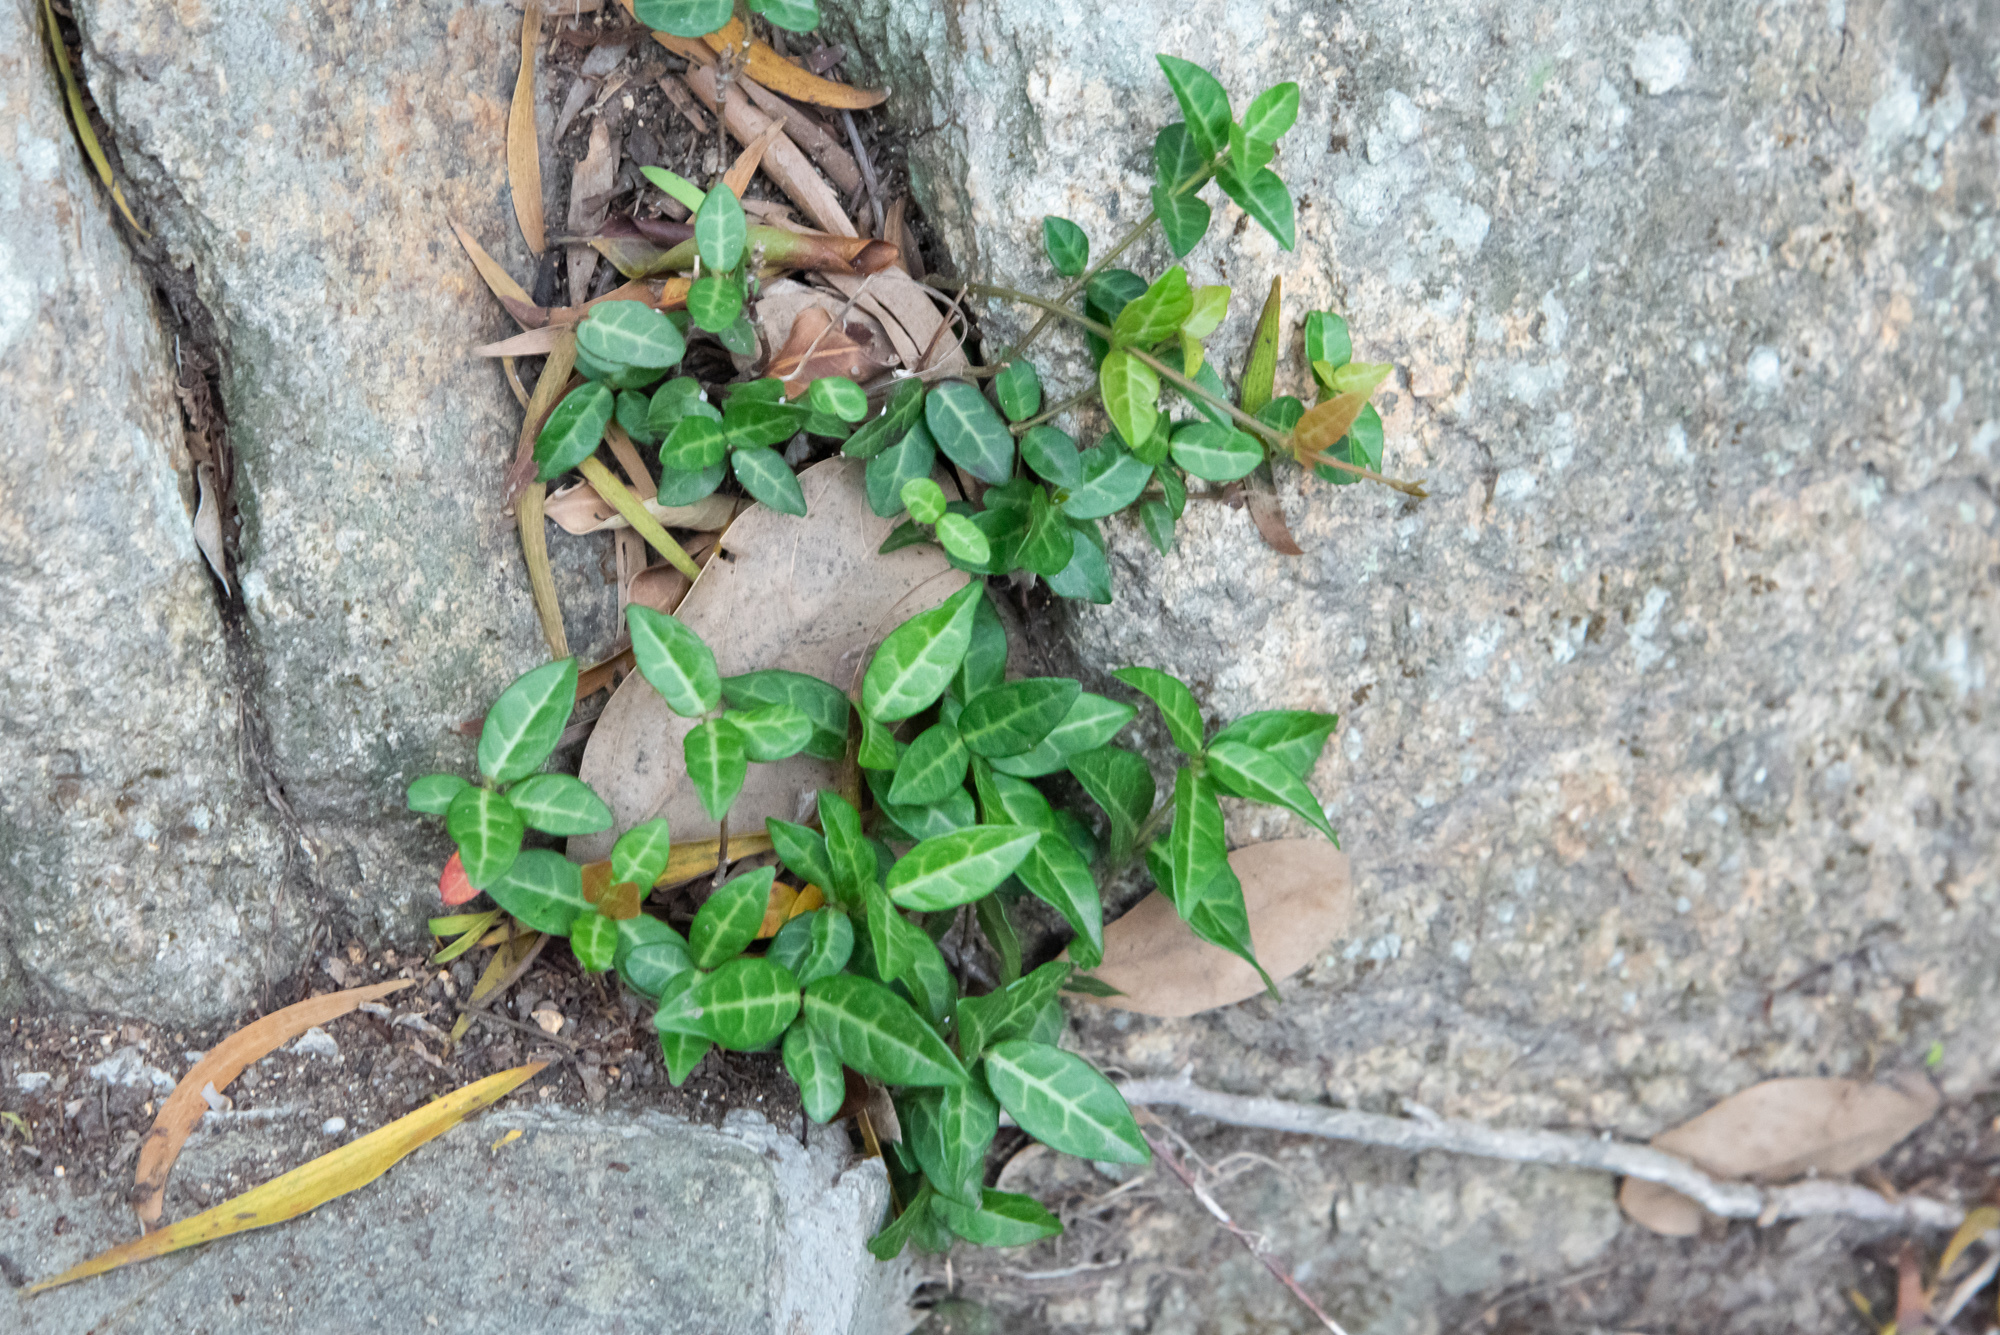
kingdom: Plantae
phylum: Tracheophyta
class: Magnoliopsida
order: Gentianales
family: Apocynaceae
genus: Trachelospermum
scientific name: Trachelospermum jasminoides
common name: Confederate jasmine
